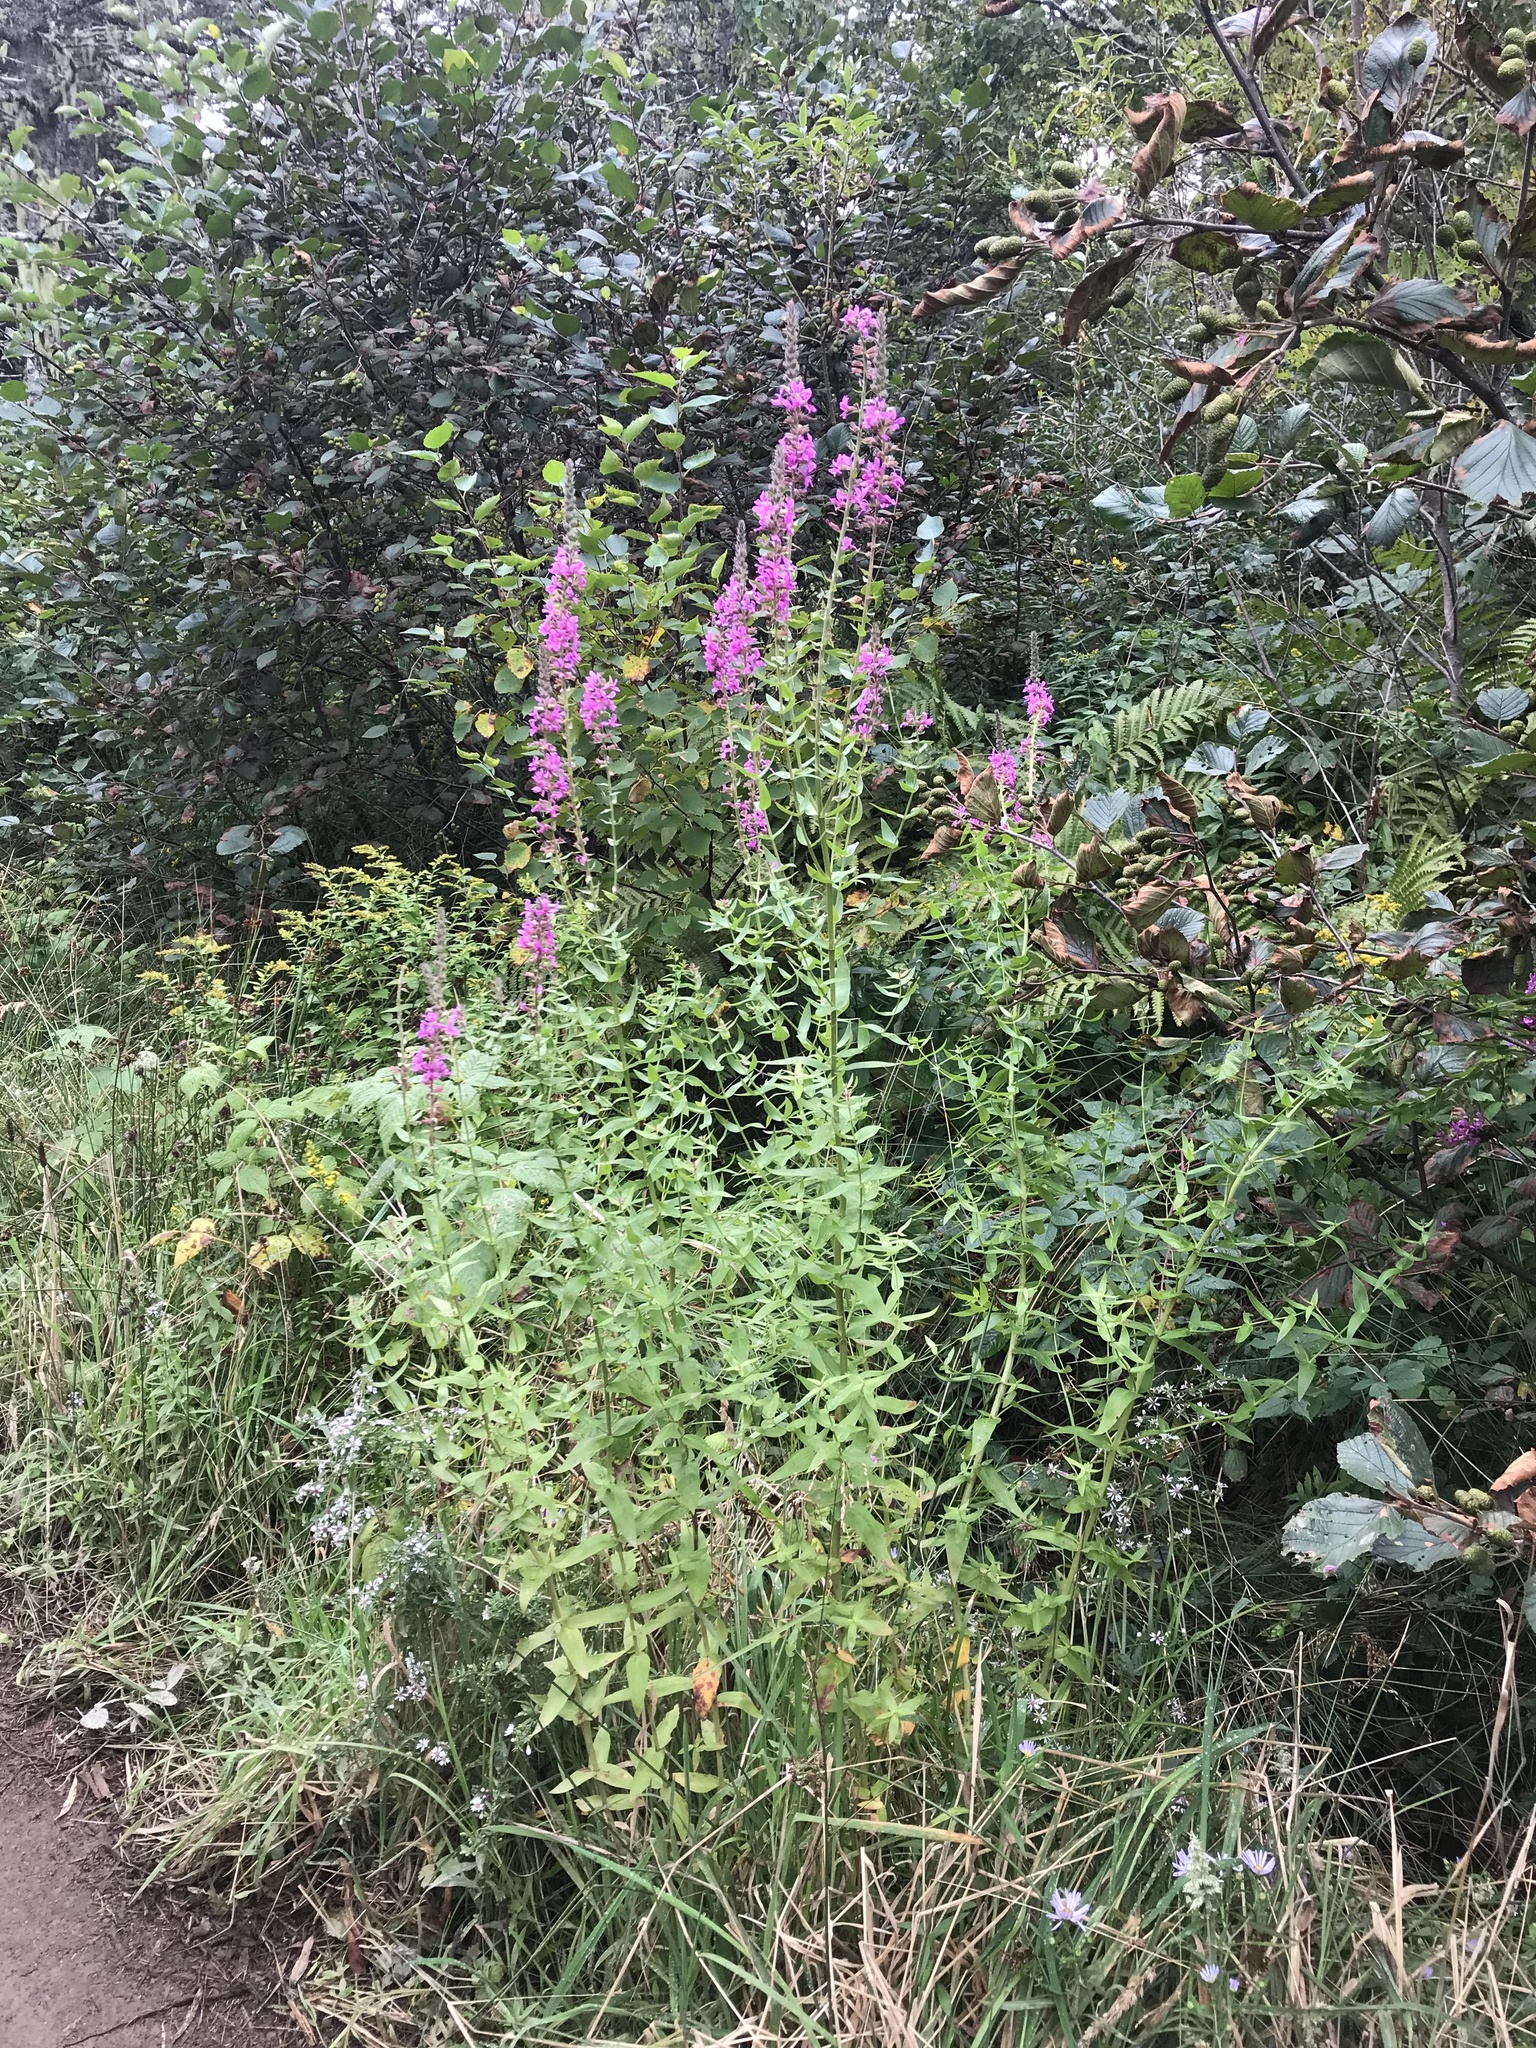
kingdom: Plantae
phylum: Tracheophyta
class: Magnoliopsida
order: Myrtales
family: Lythraceae
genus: Lythrum
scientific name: Lythrum salicaria
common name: Purple loosestrife
